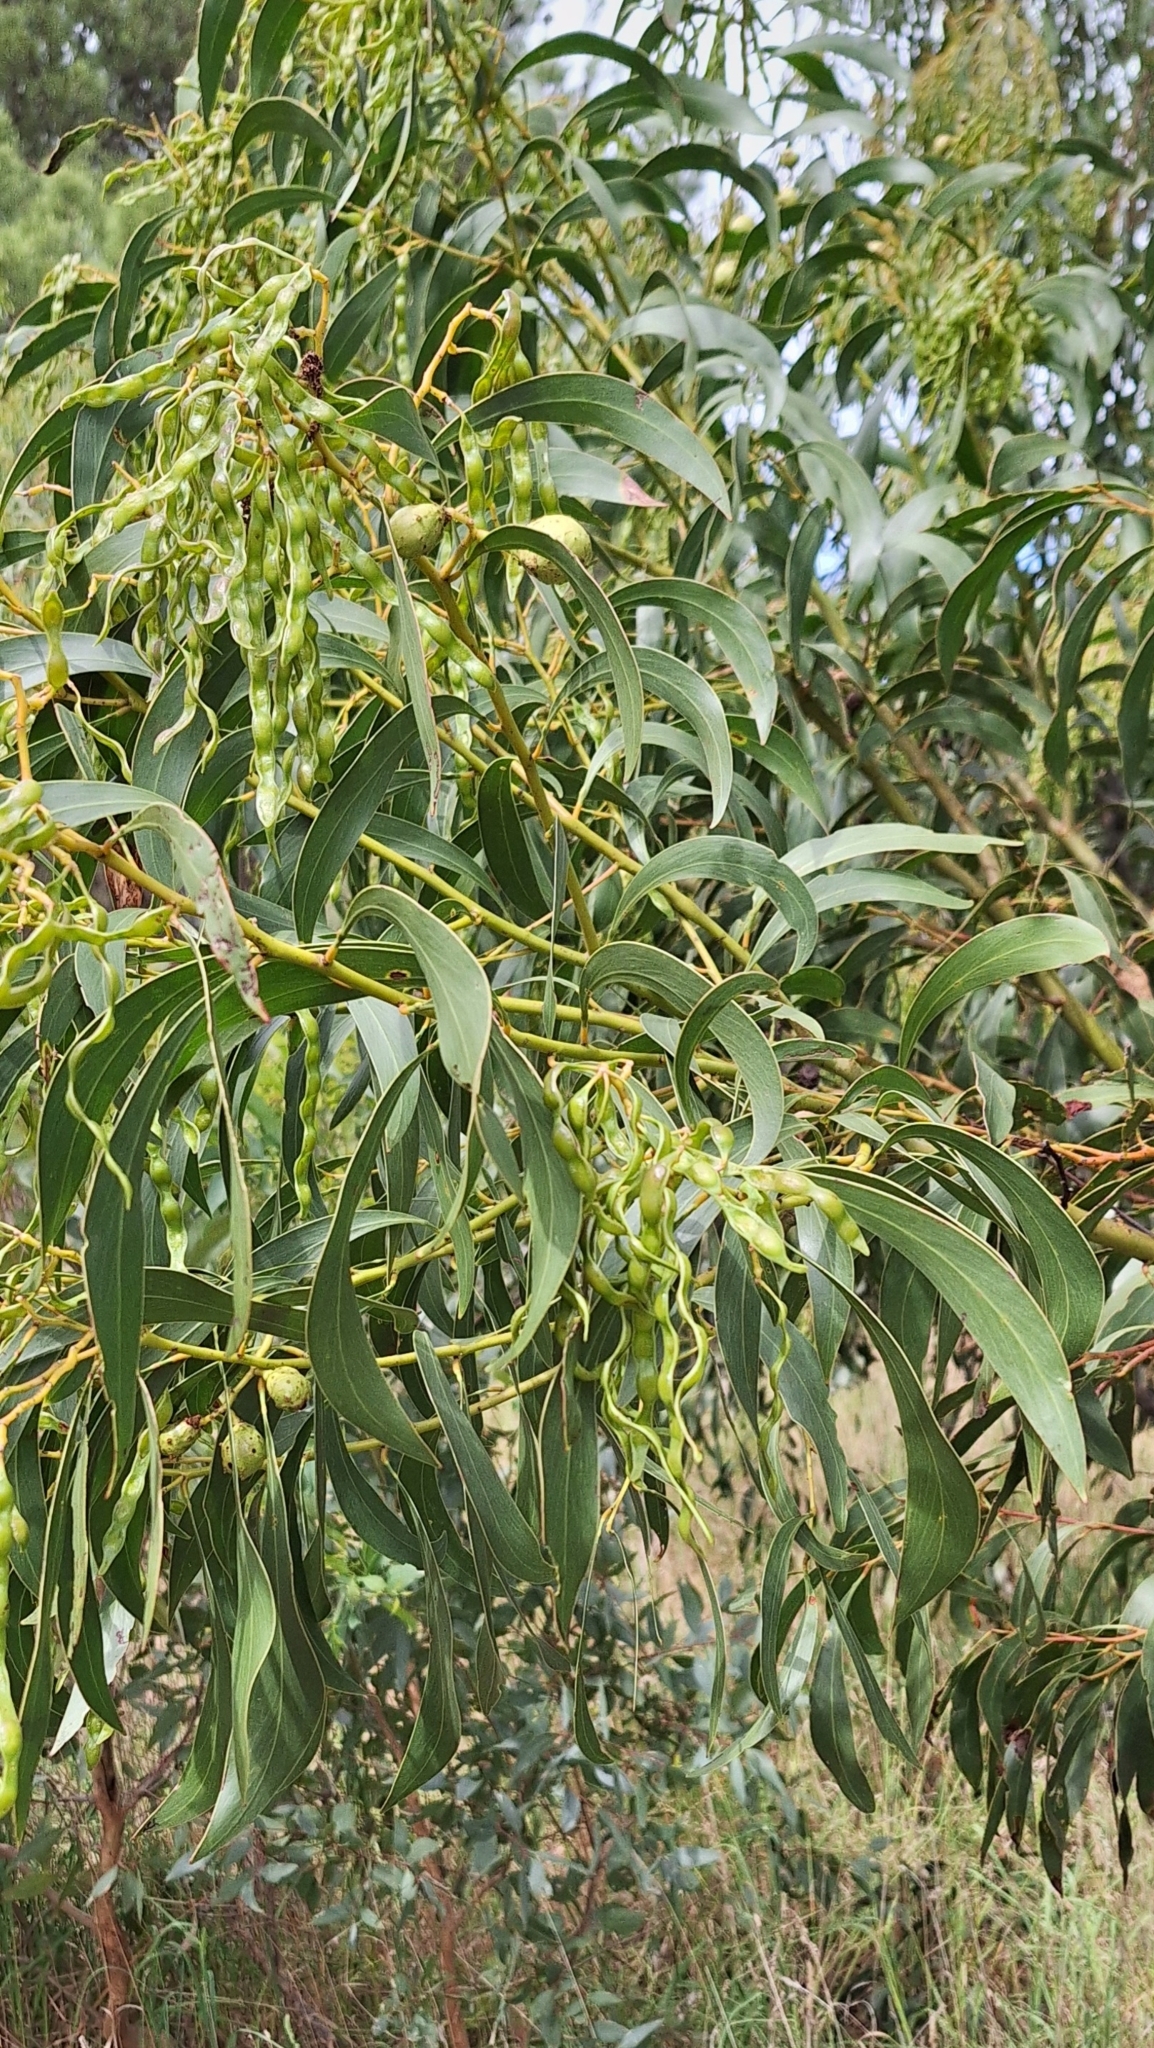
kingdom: Plantae
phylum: Tracheophyta
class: Magnoliopsida
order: Fabales
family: Fabaceae
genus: Acacia
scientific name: Acacia pycnantha
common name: Golden wattle
